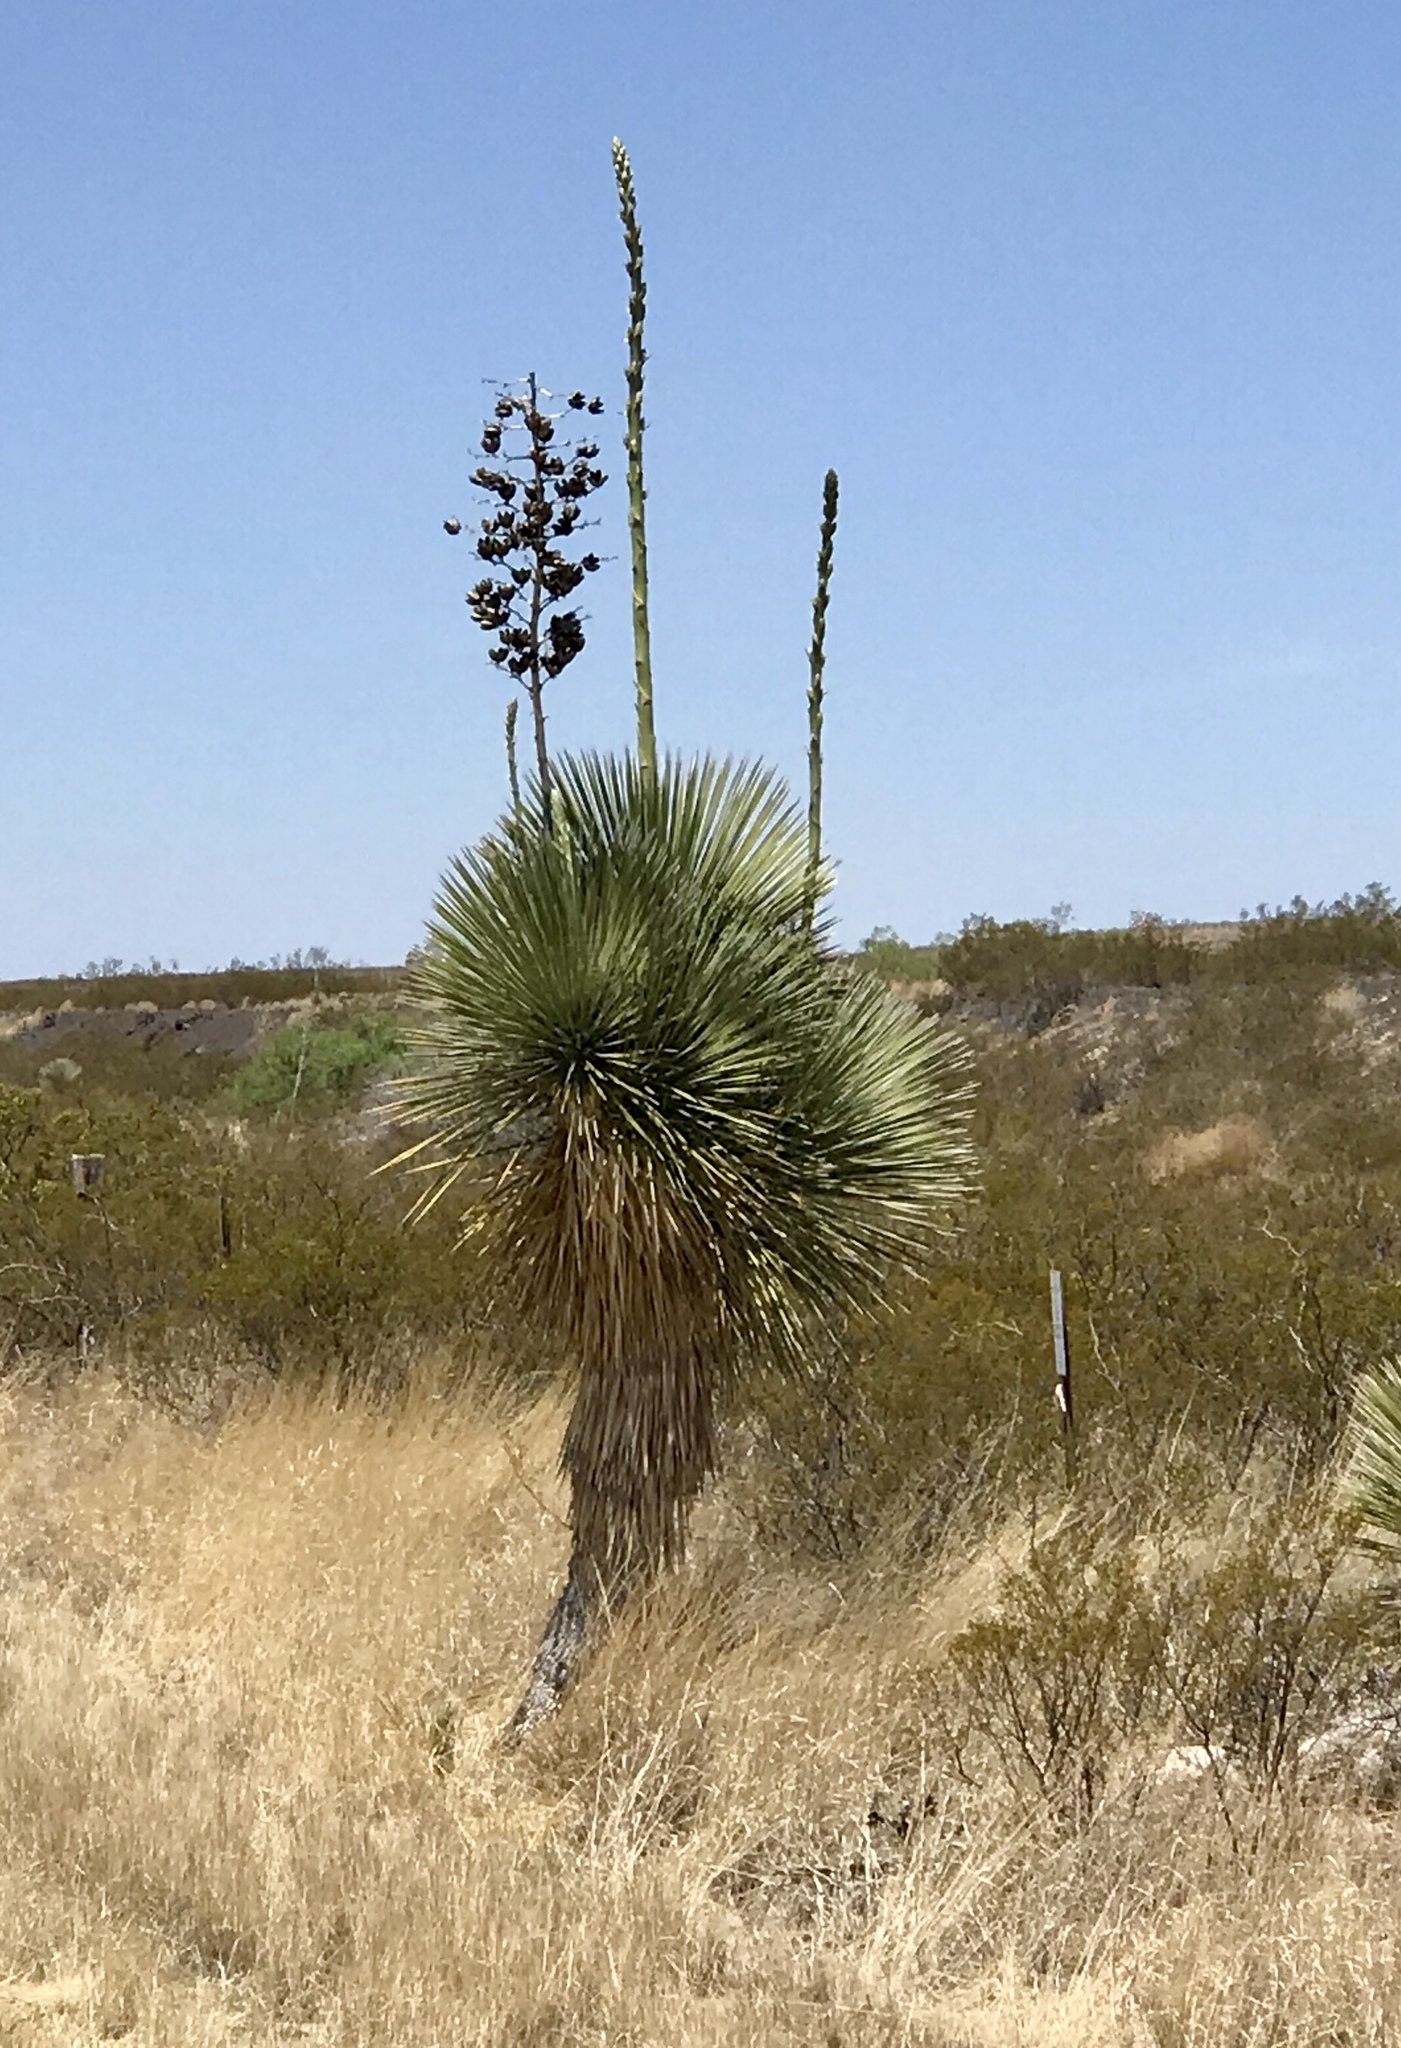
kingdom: Plantae
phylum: Tracheophyta
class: Liliopsida
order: Asparagales
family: Asparagaceae
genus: Yucca
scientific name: Yucca elata
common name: Palmella
